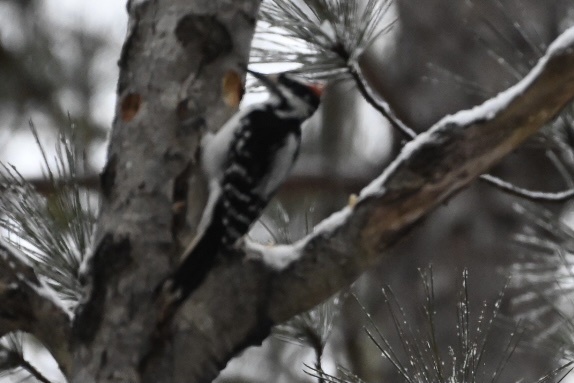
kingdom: Animalia
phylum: Chordata
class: Aves
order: Piciformes
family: Picidae
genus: Leuconotopicus
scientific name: Leuconotopicus villosus
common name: Hairy woodpecker
